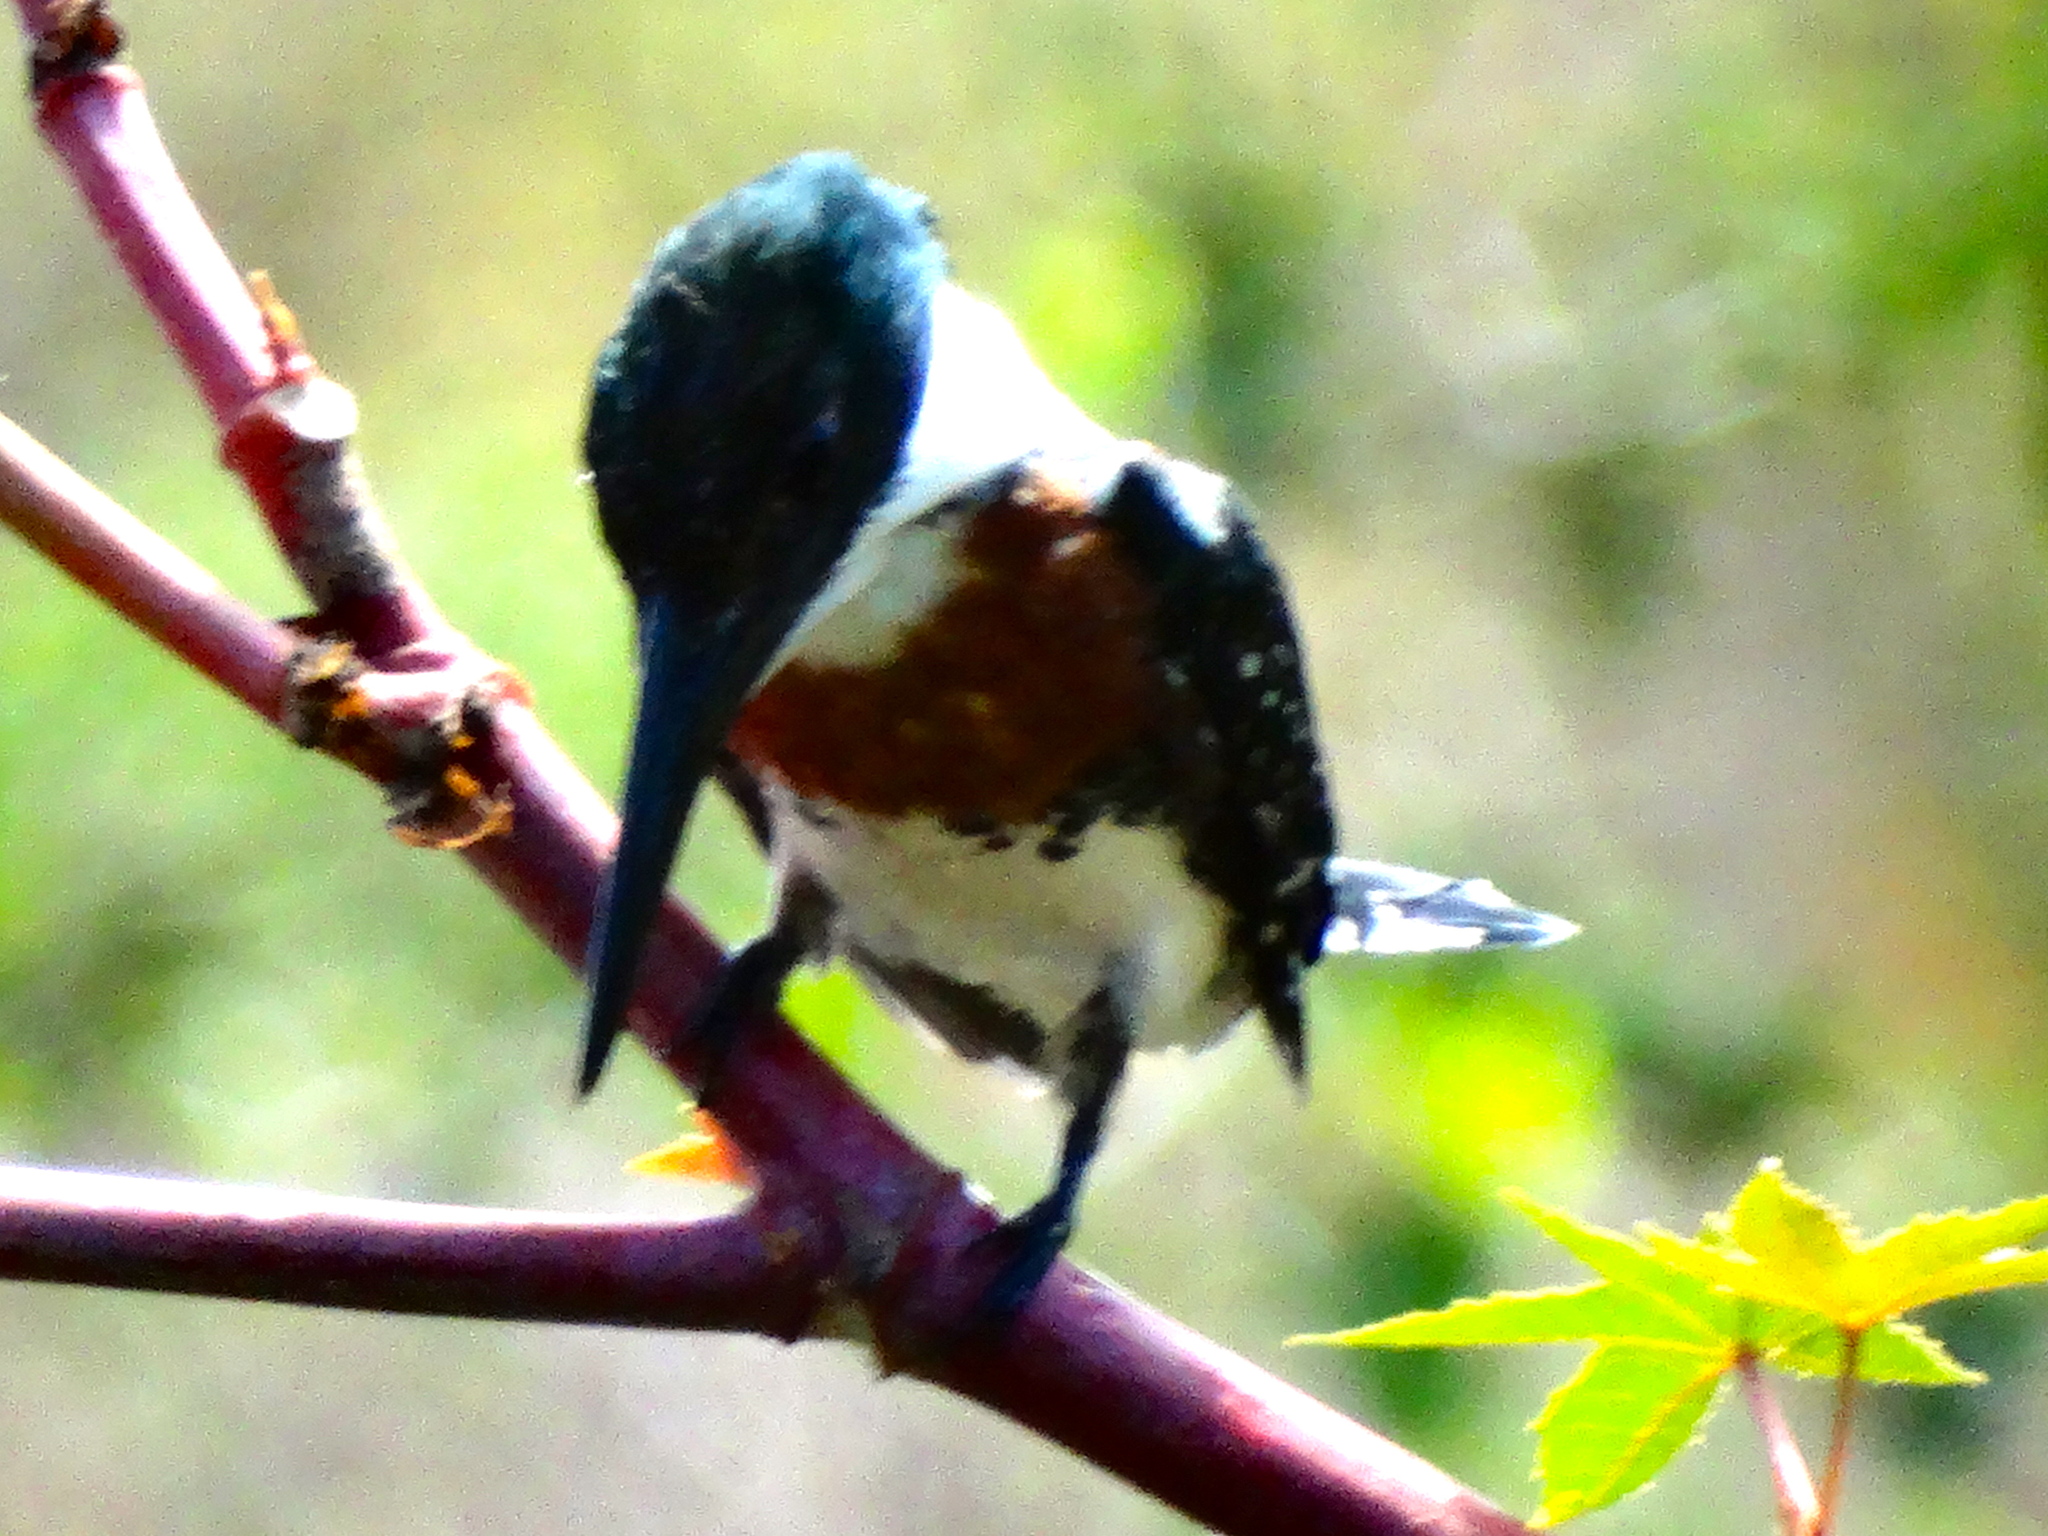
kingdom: Animalia
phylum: Chordata
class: Aves
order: Coraciiformes
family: Alcedinidae
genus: Chloroceryle
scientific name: Chloroceryle americana
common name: Green kingfisher
